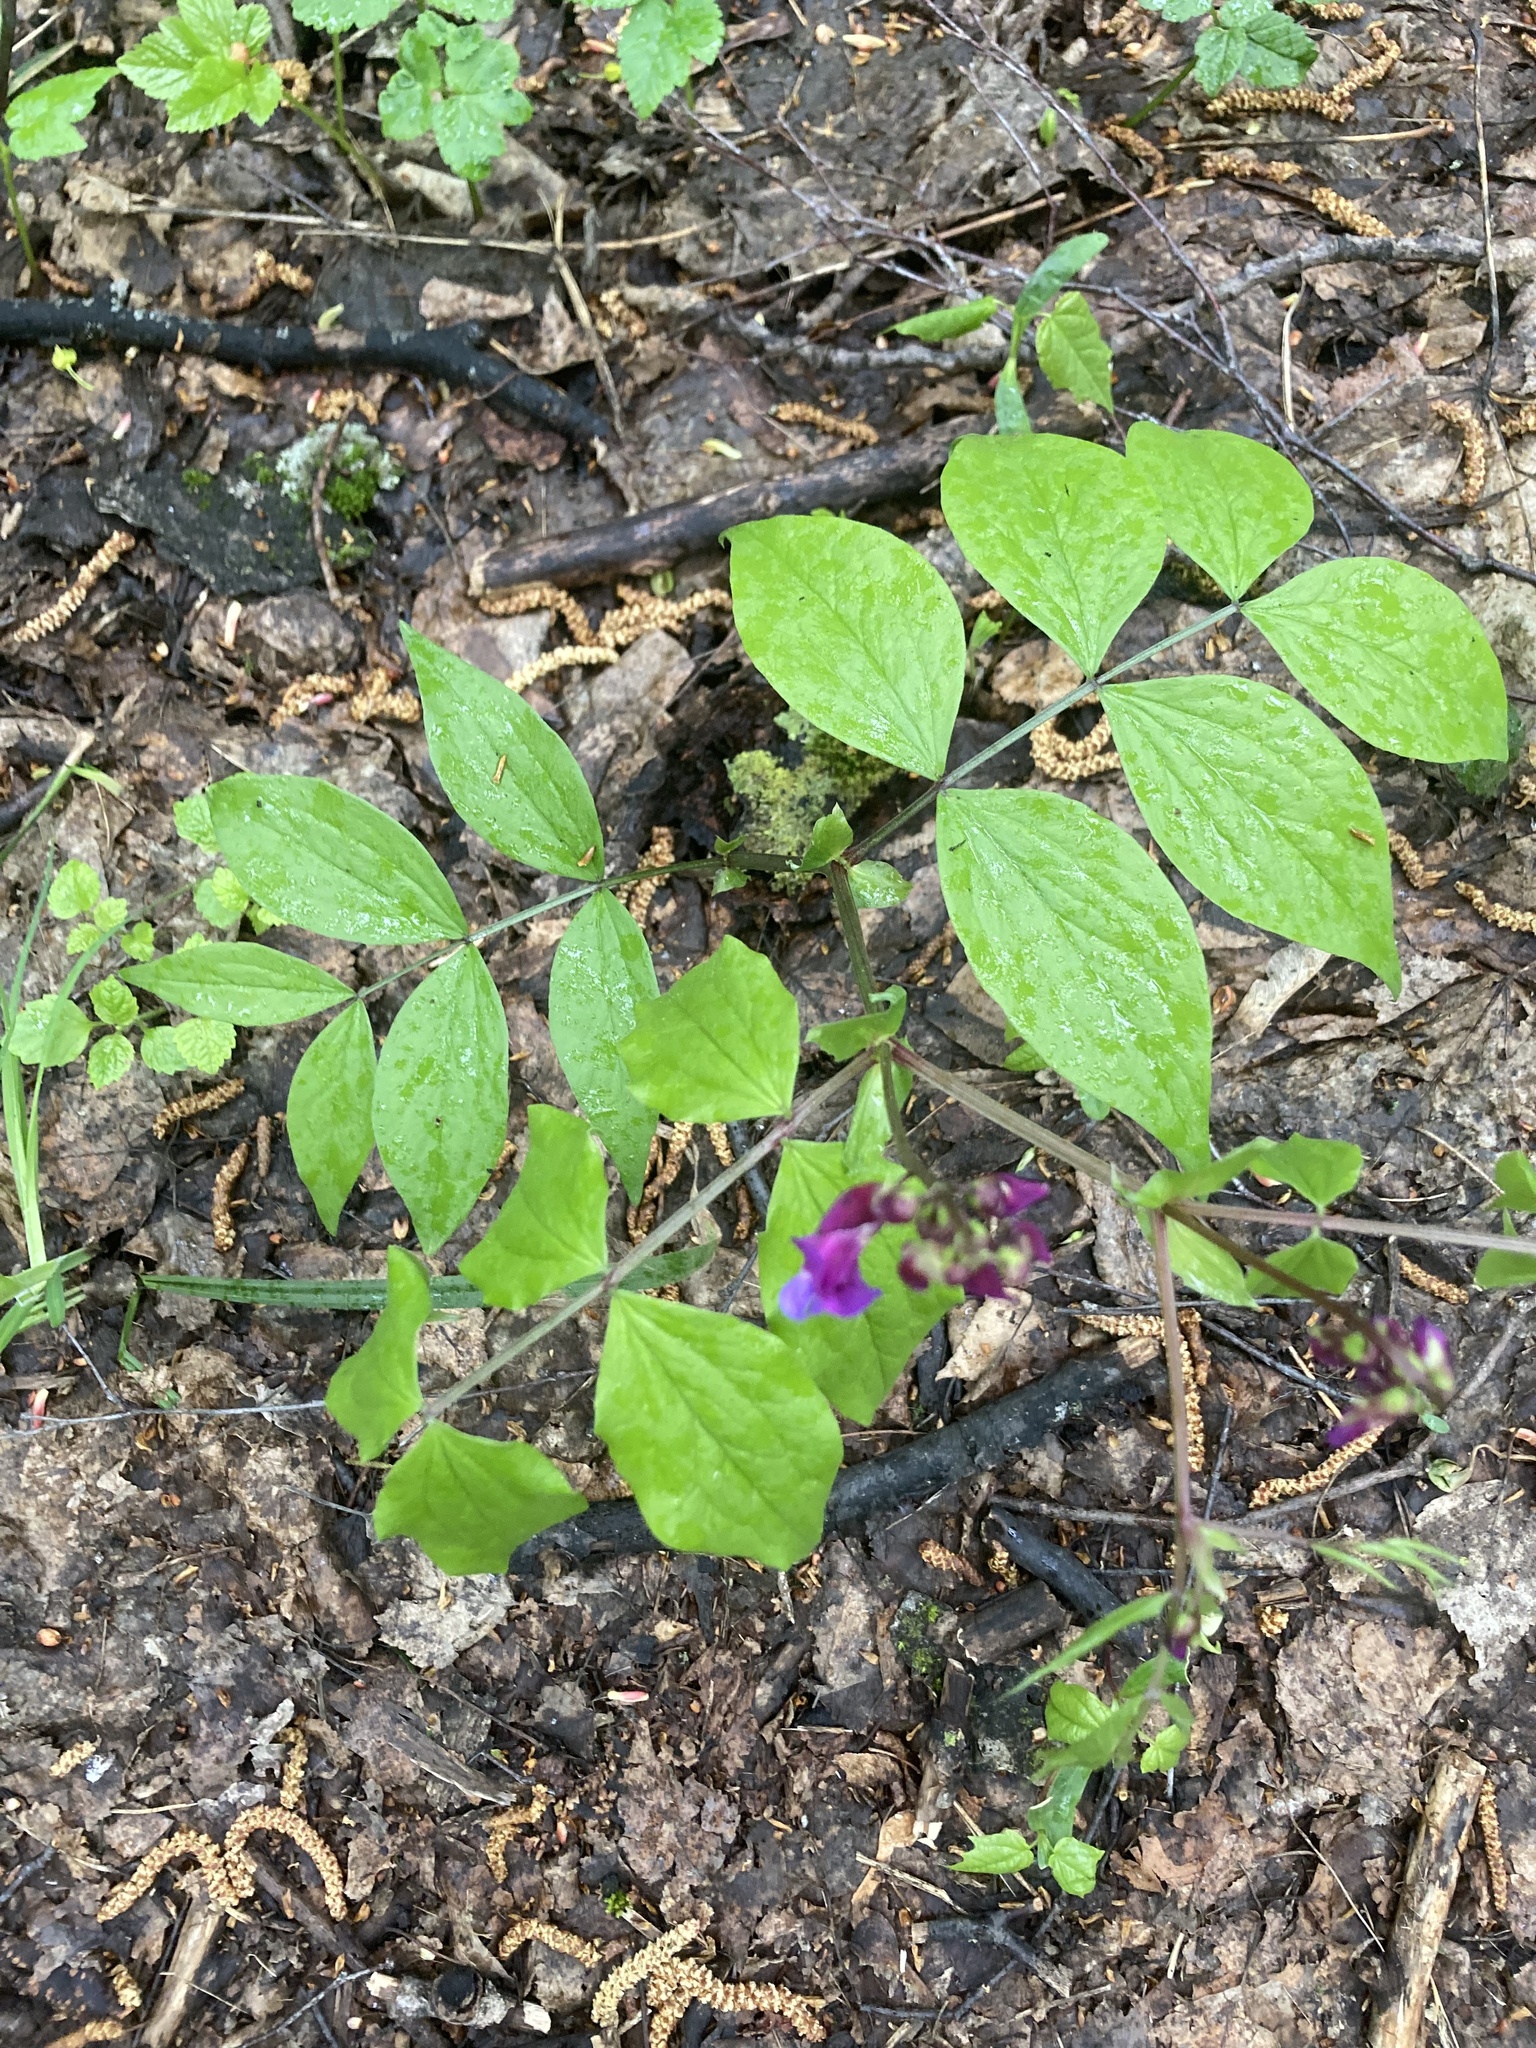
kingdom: Plantae
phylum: Tracheophyta
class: Magnoliopsida
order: Fabales
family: Fabaceae
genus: Lathyrus
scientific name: Lathyrus vernus
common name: Spring pea
